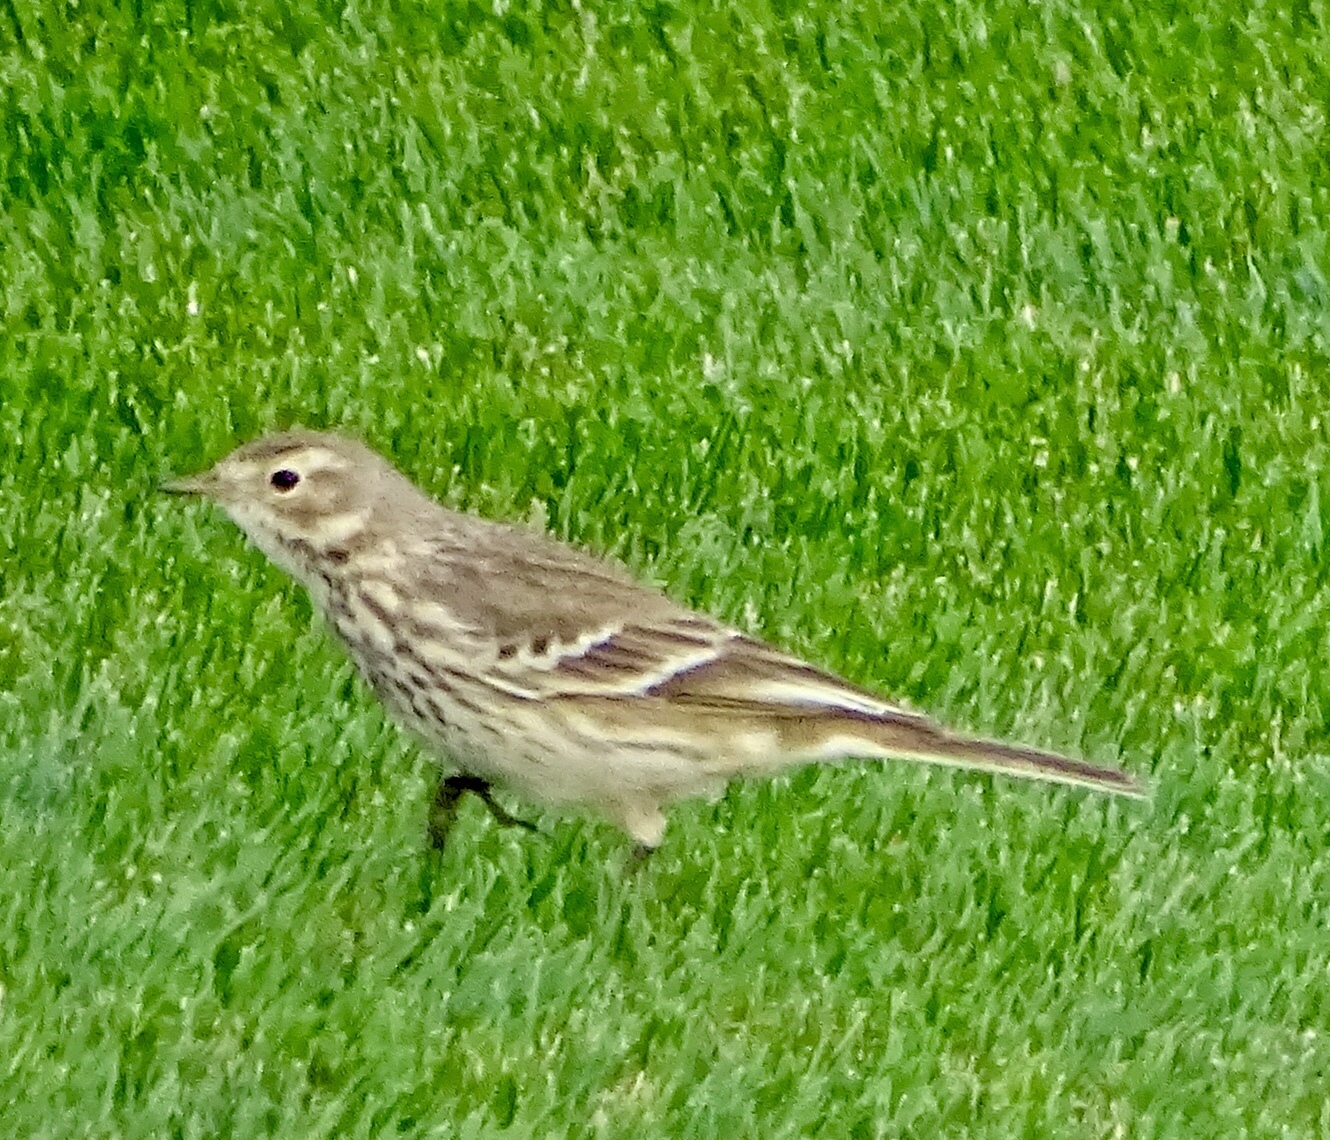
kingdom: Animalia
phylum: Chordata
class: Aves
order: Passeriformes
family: Motacillidae
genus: Anthus
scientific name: Anthus rubescens
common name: Buff-bellied pipit
